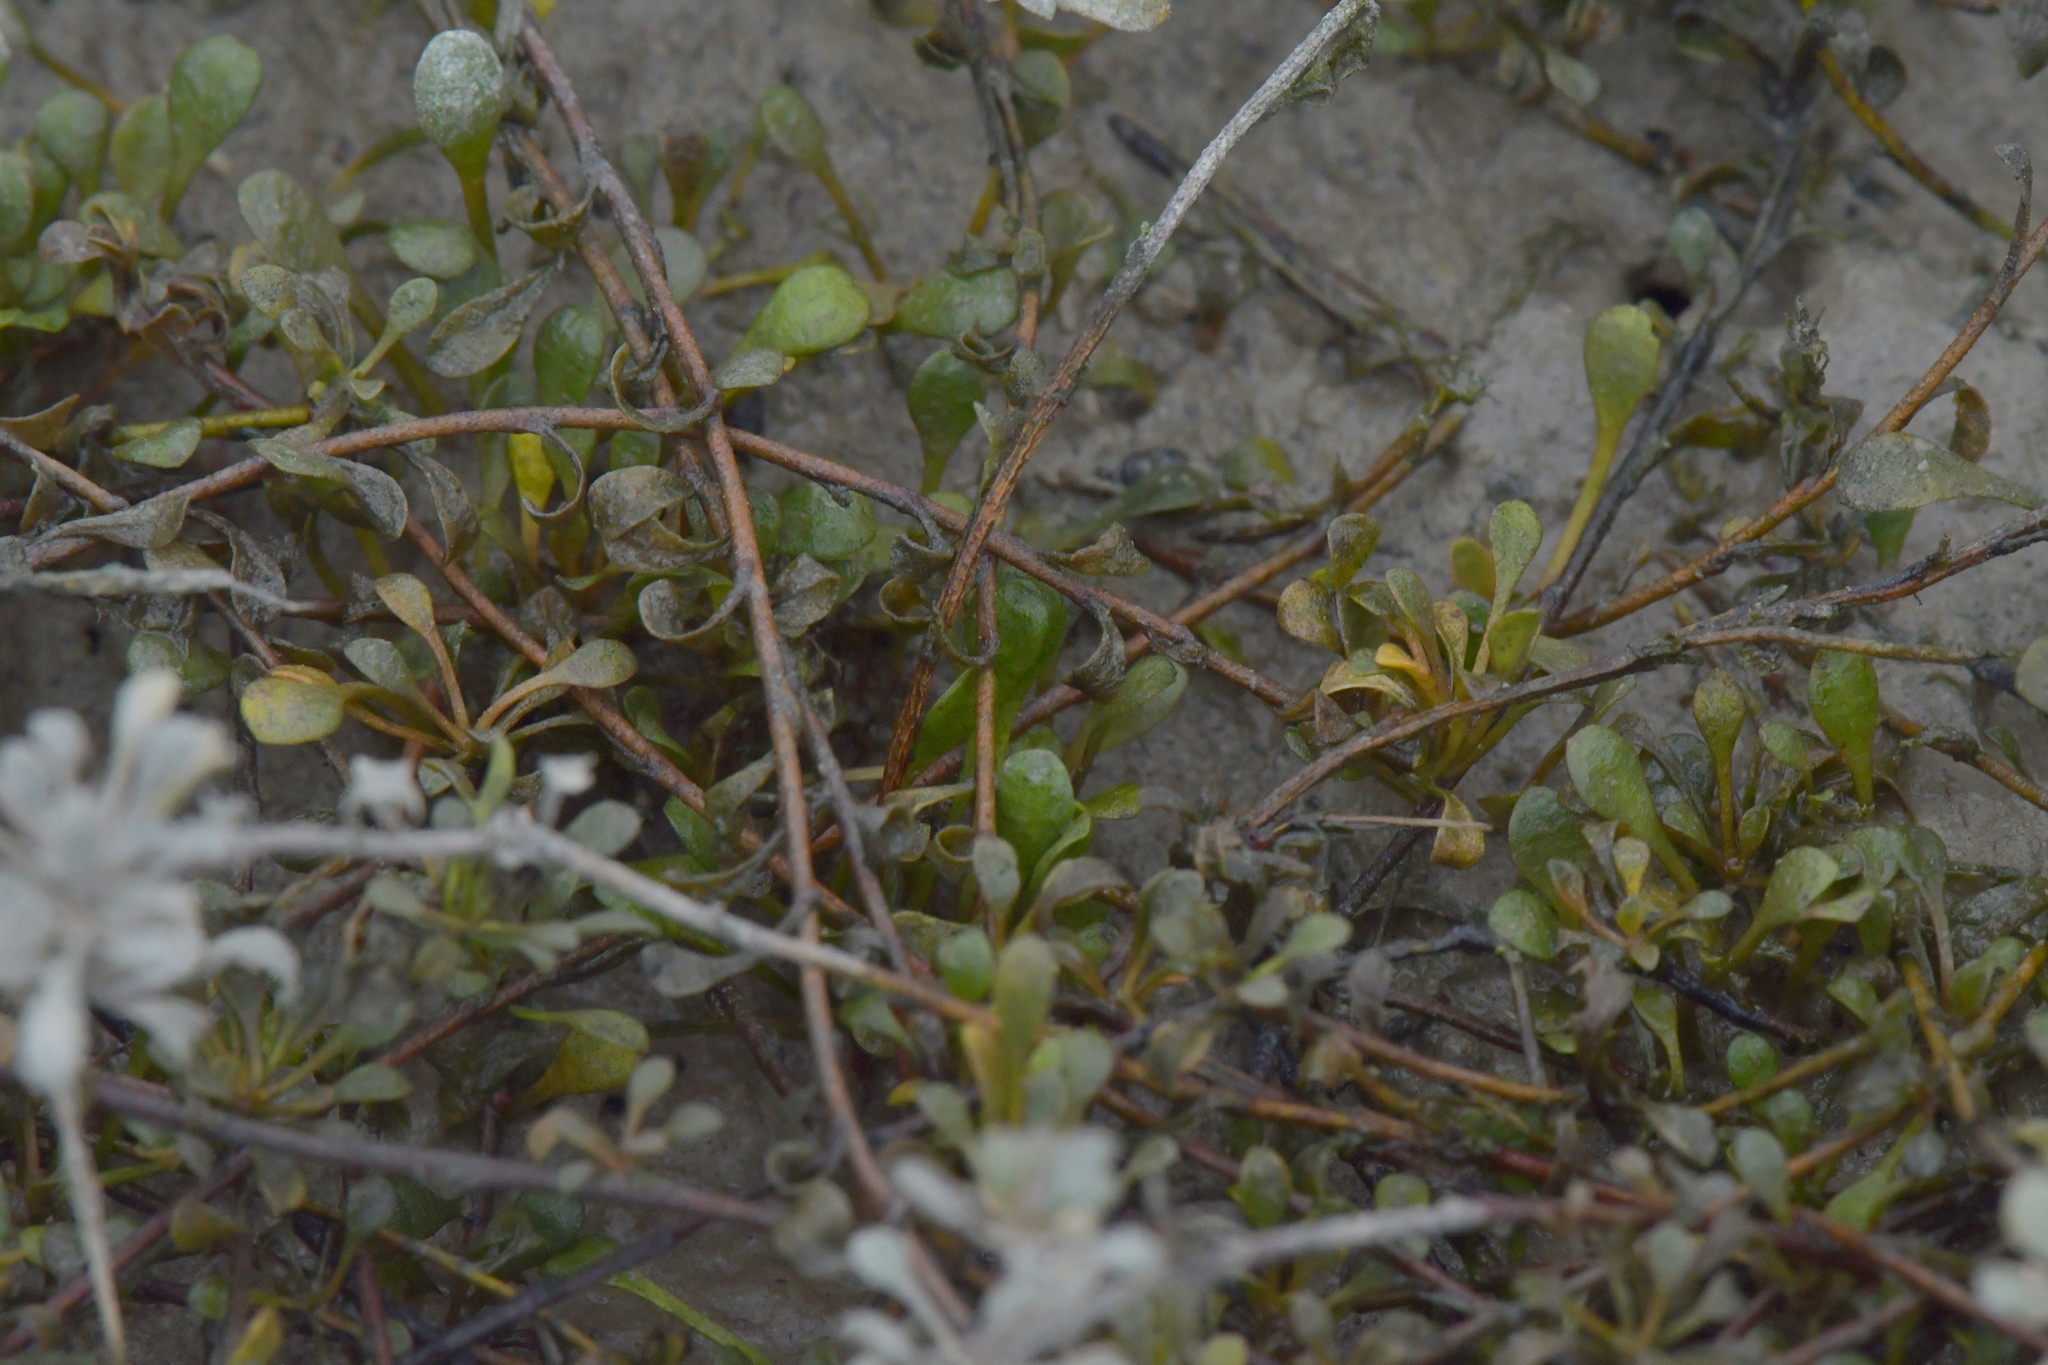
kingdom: Plantae
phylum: Tracheophyta
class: Magnoliopsida
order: Ericales
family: Primulaceae
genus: Samolus
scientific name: Samolus repens
